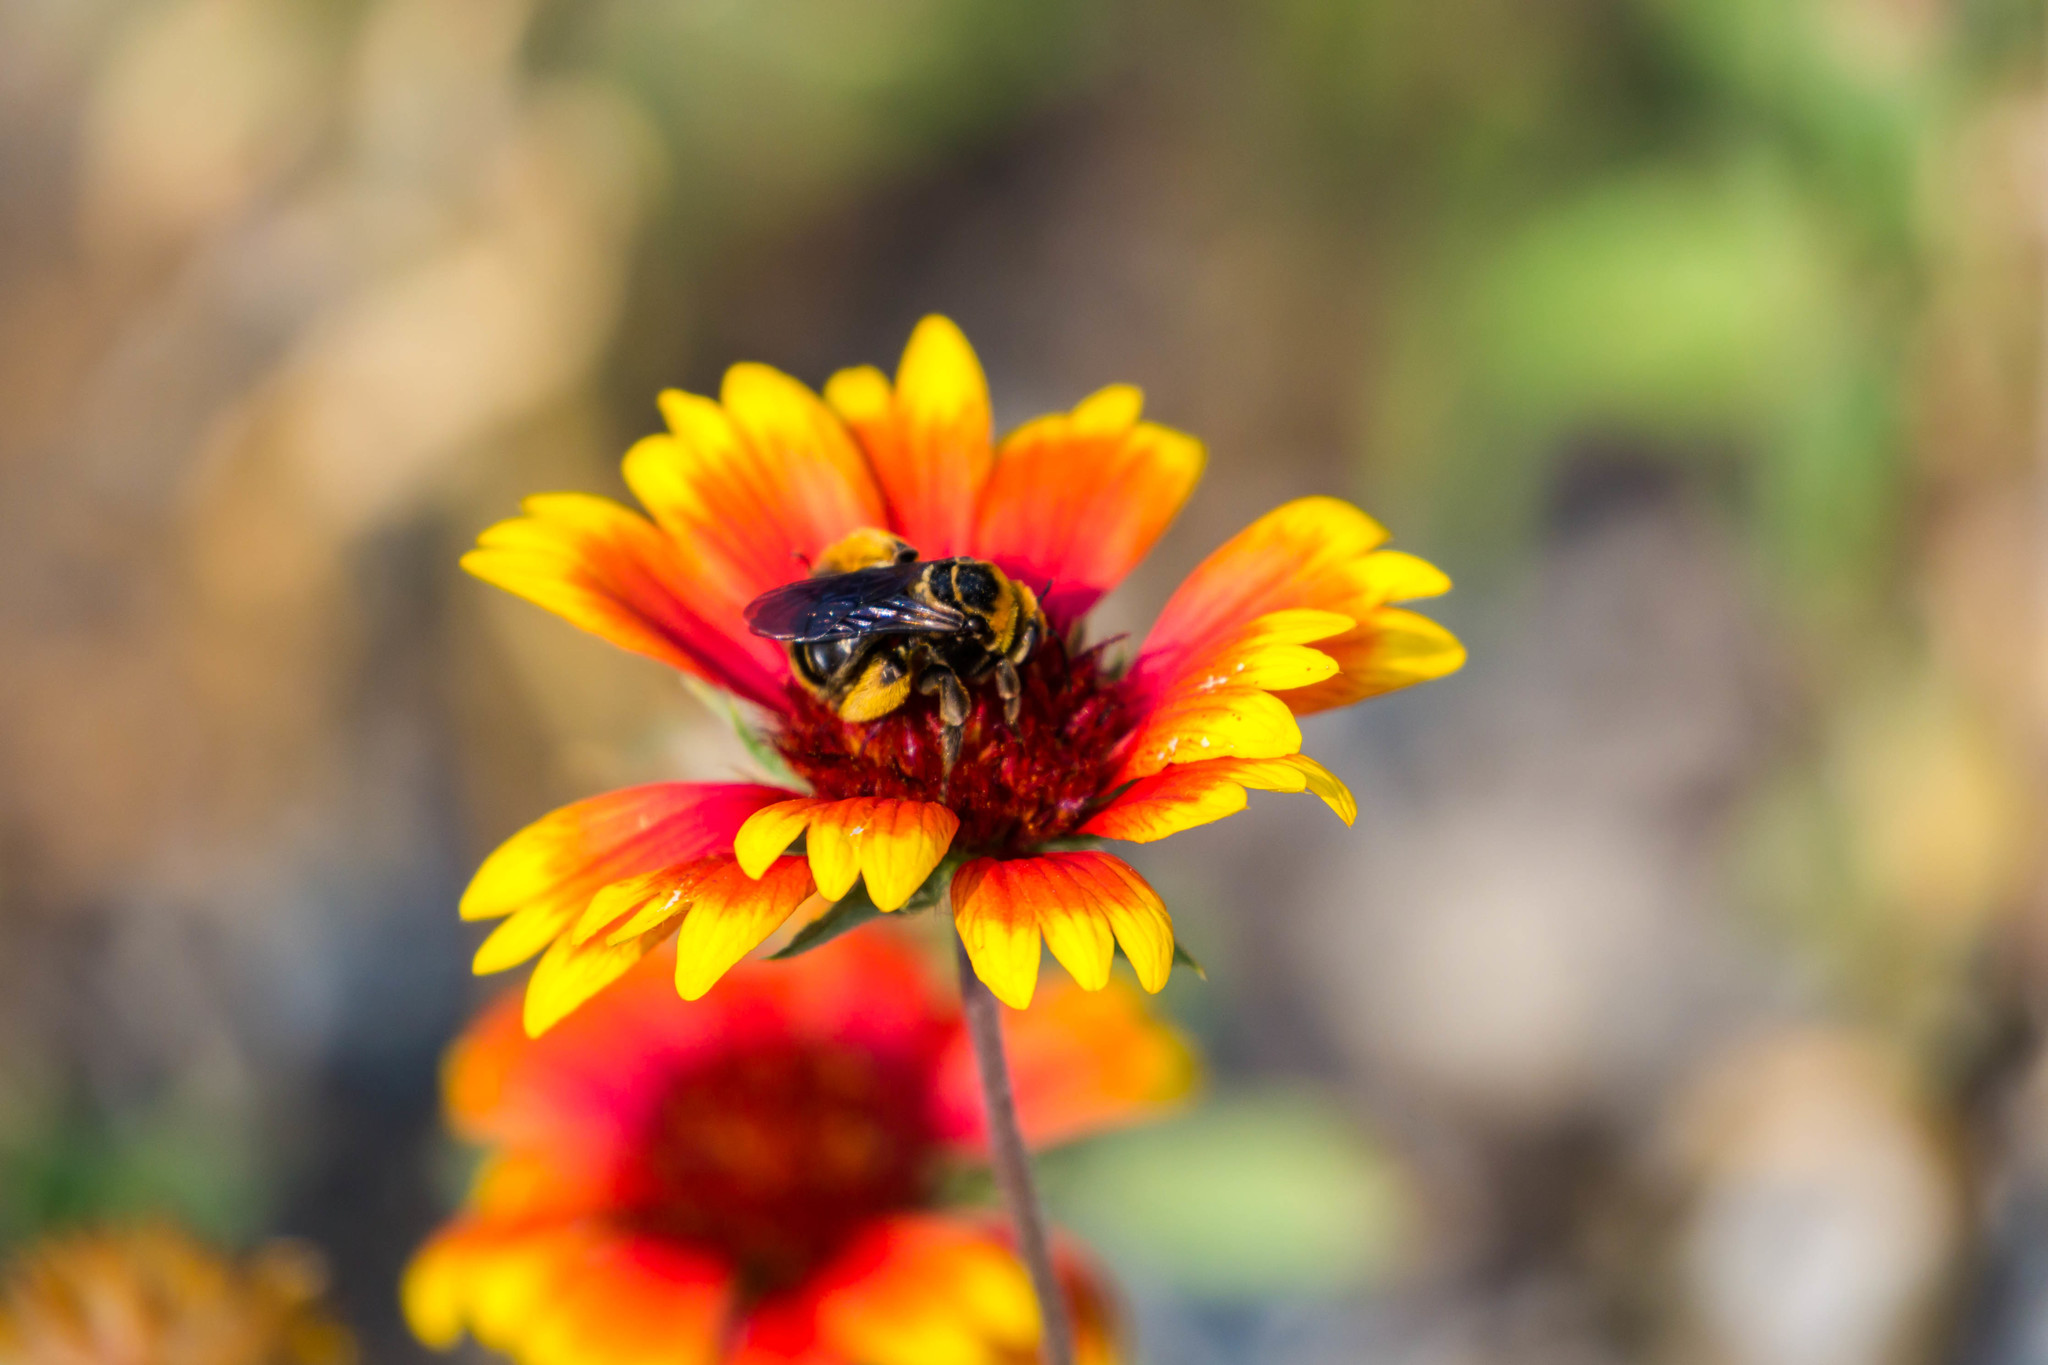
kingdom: Animalia
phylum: Arthropoda
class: Insecta
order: Hymenoptera
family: Apidae
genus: Svastra
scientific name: Svastra obliqua
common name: Oblique longhorn
